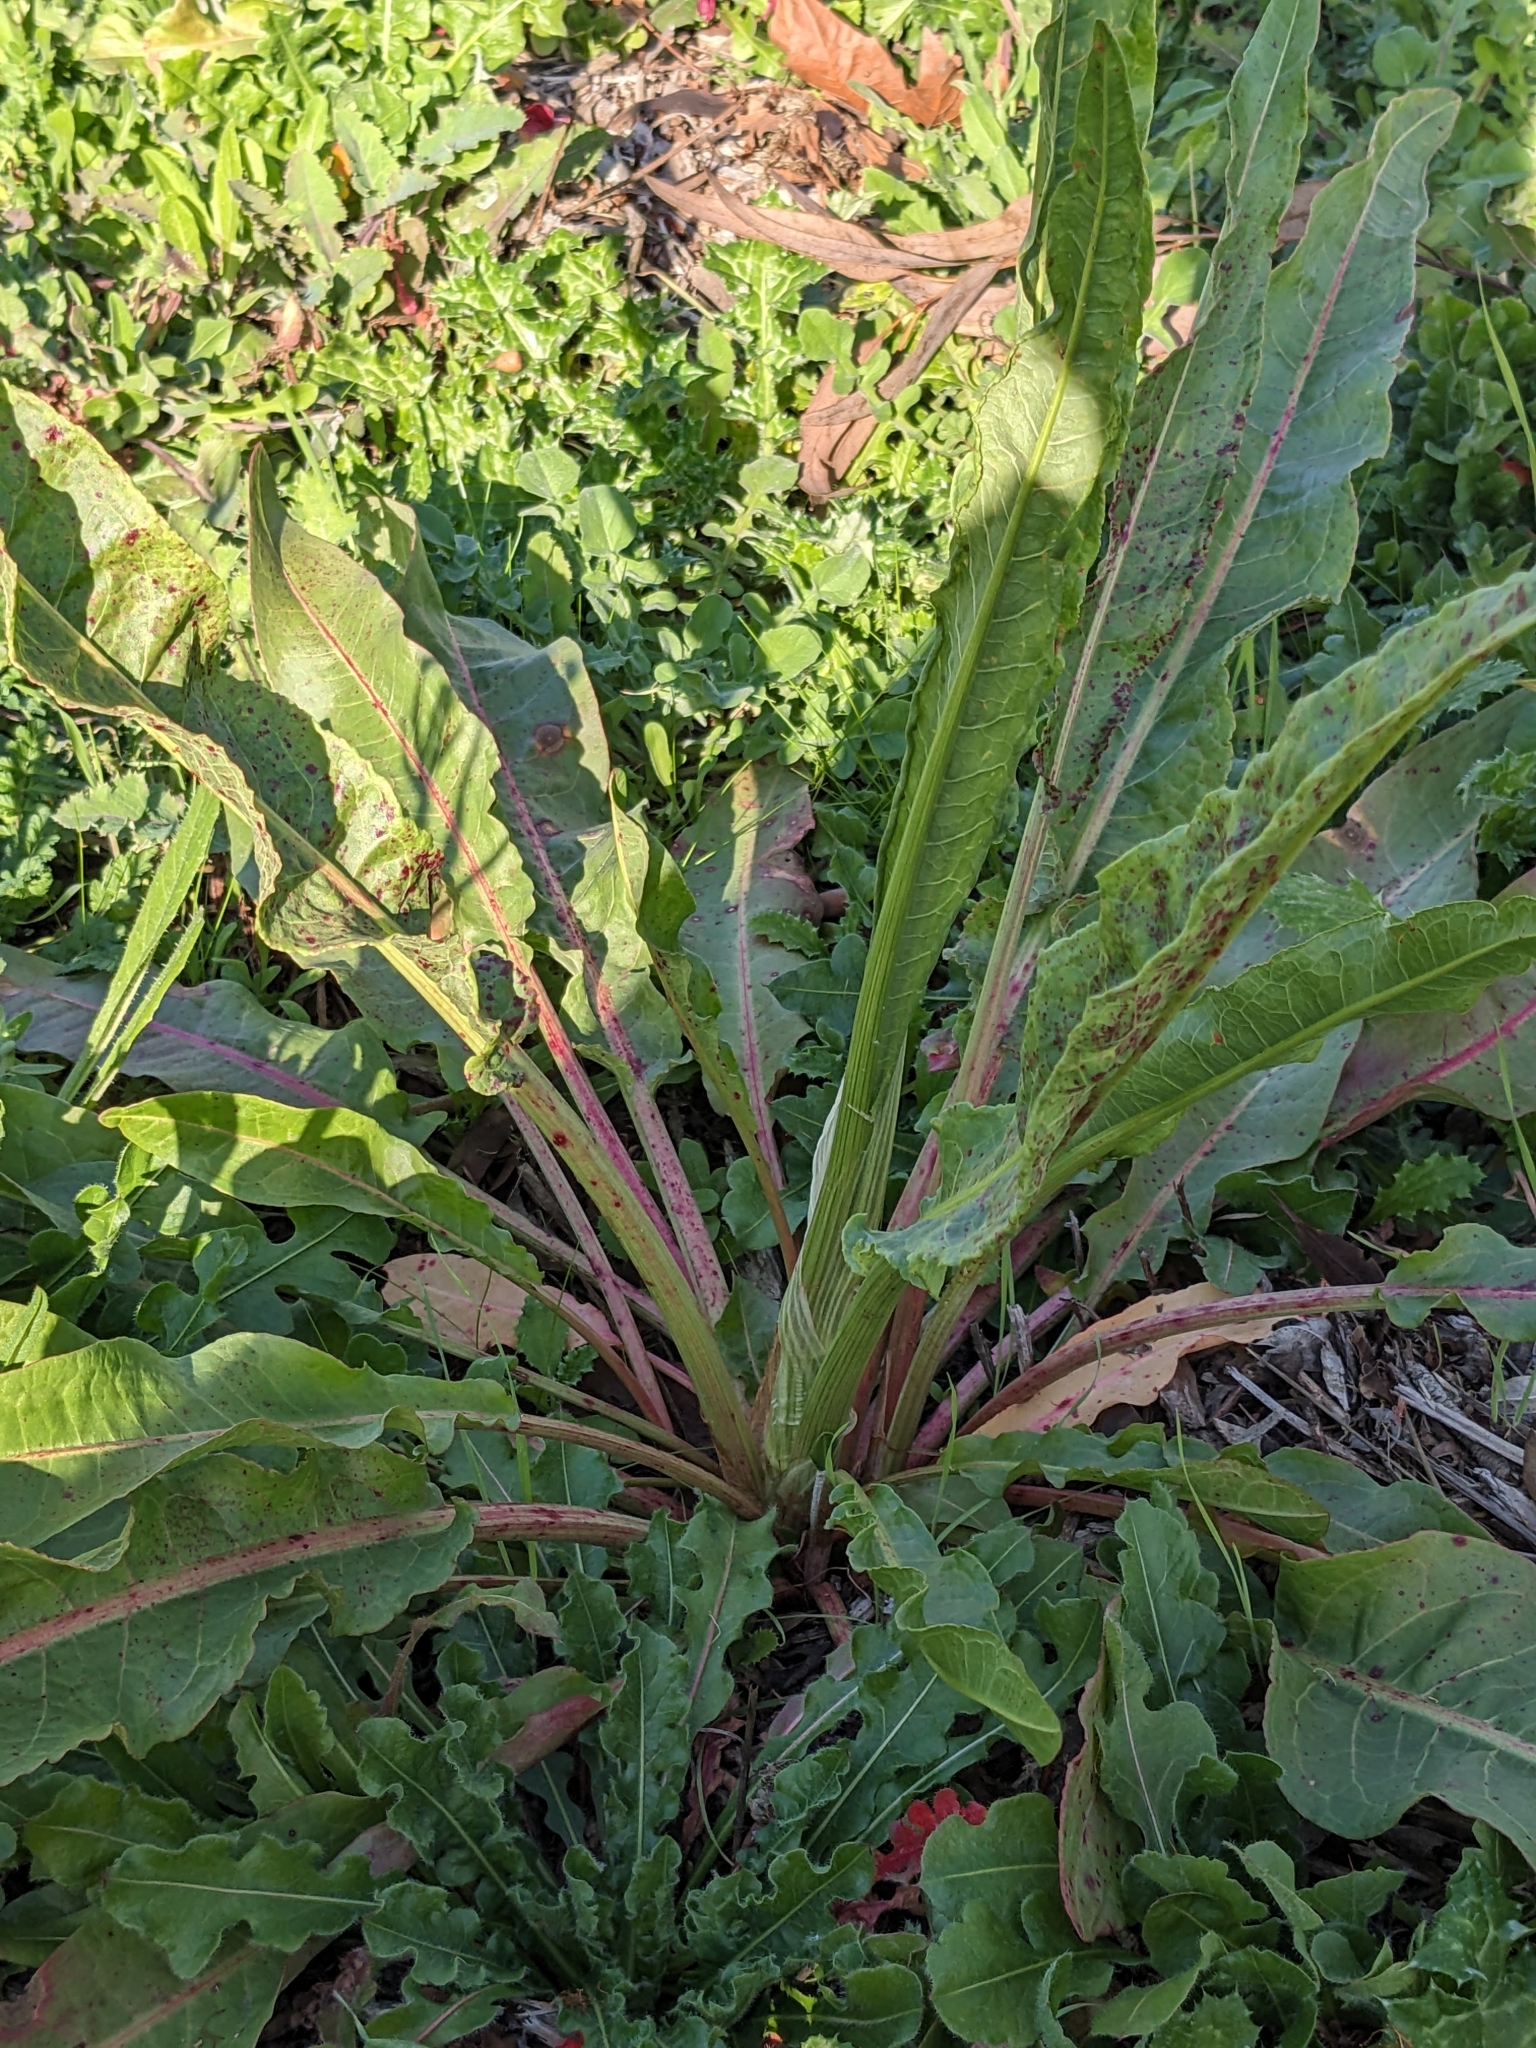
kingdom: Plantae
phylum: Tracheophyta
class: Magnoliopsida
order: Caryophyllales
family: Polygonaceae
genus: Rumex
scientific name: Rumex crispus
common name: Curled dock
